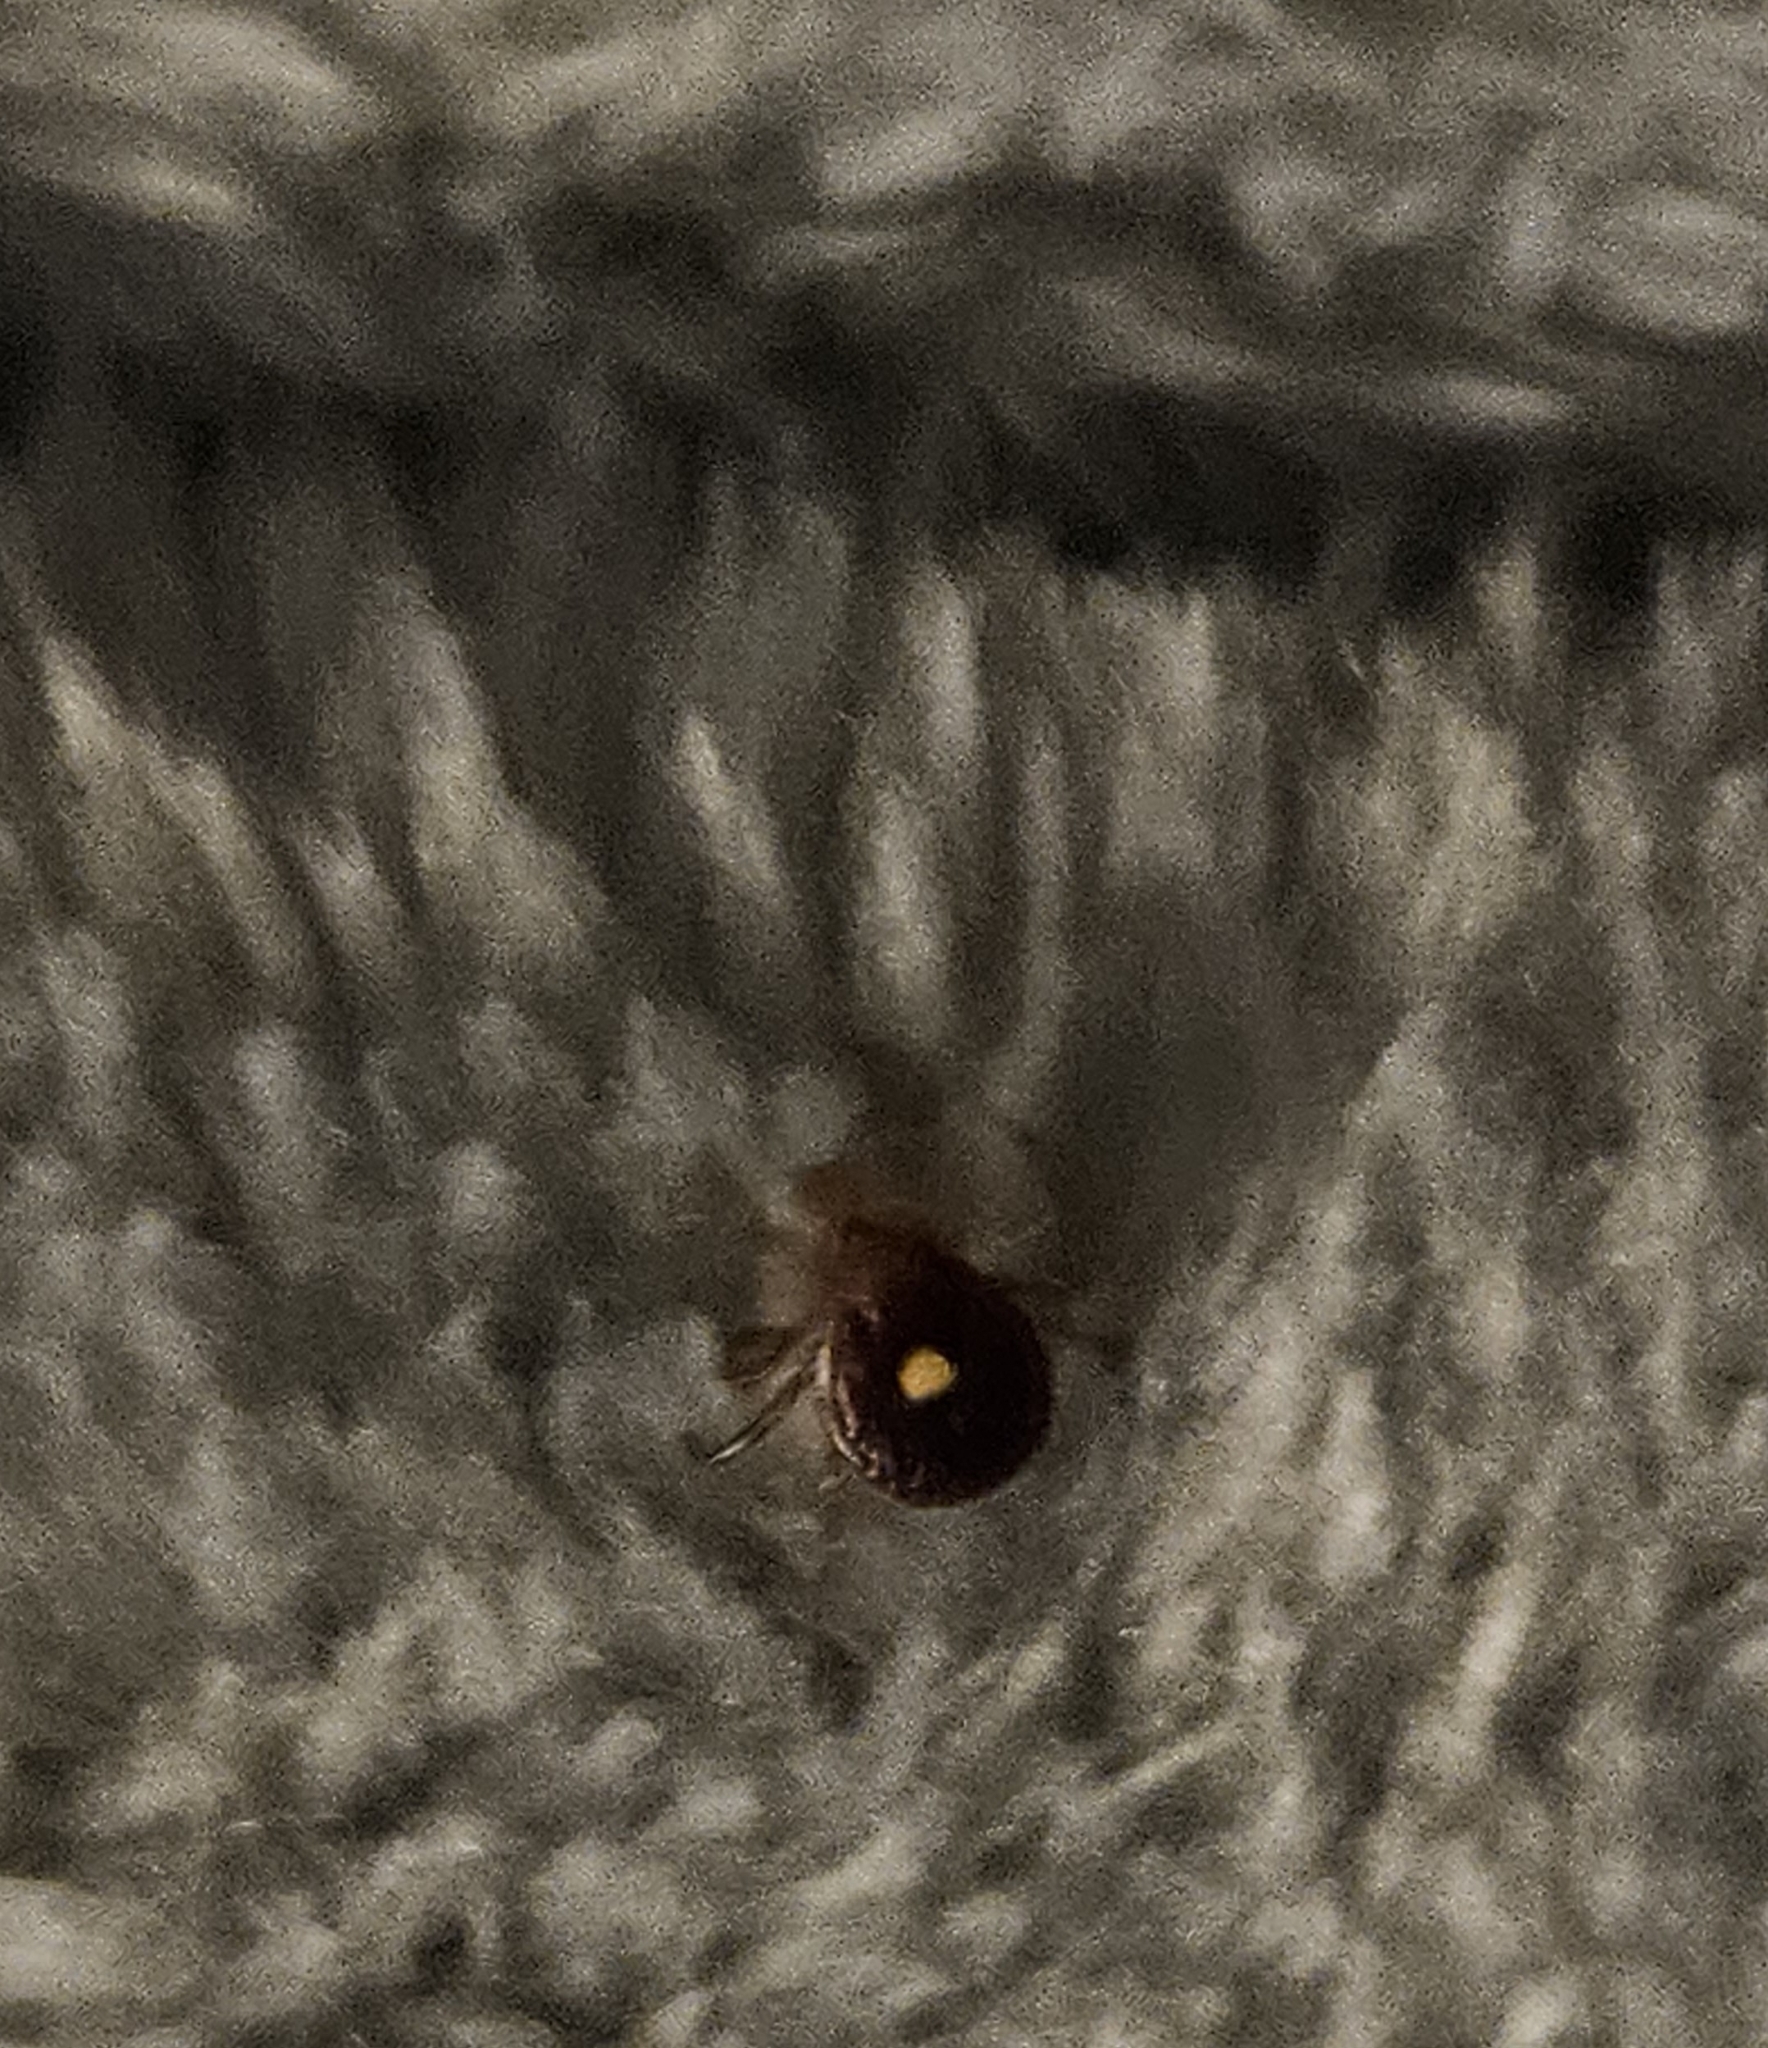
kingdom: Animalia
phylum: Arthropoda
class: Arachnida
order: Ixodida
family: Ixodidae
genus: Amblyomma
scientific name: Amblyomma americanum
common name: Lone star tick
